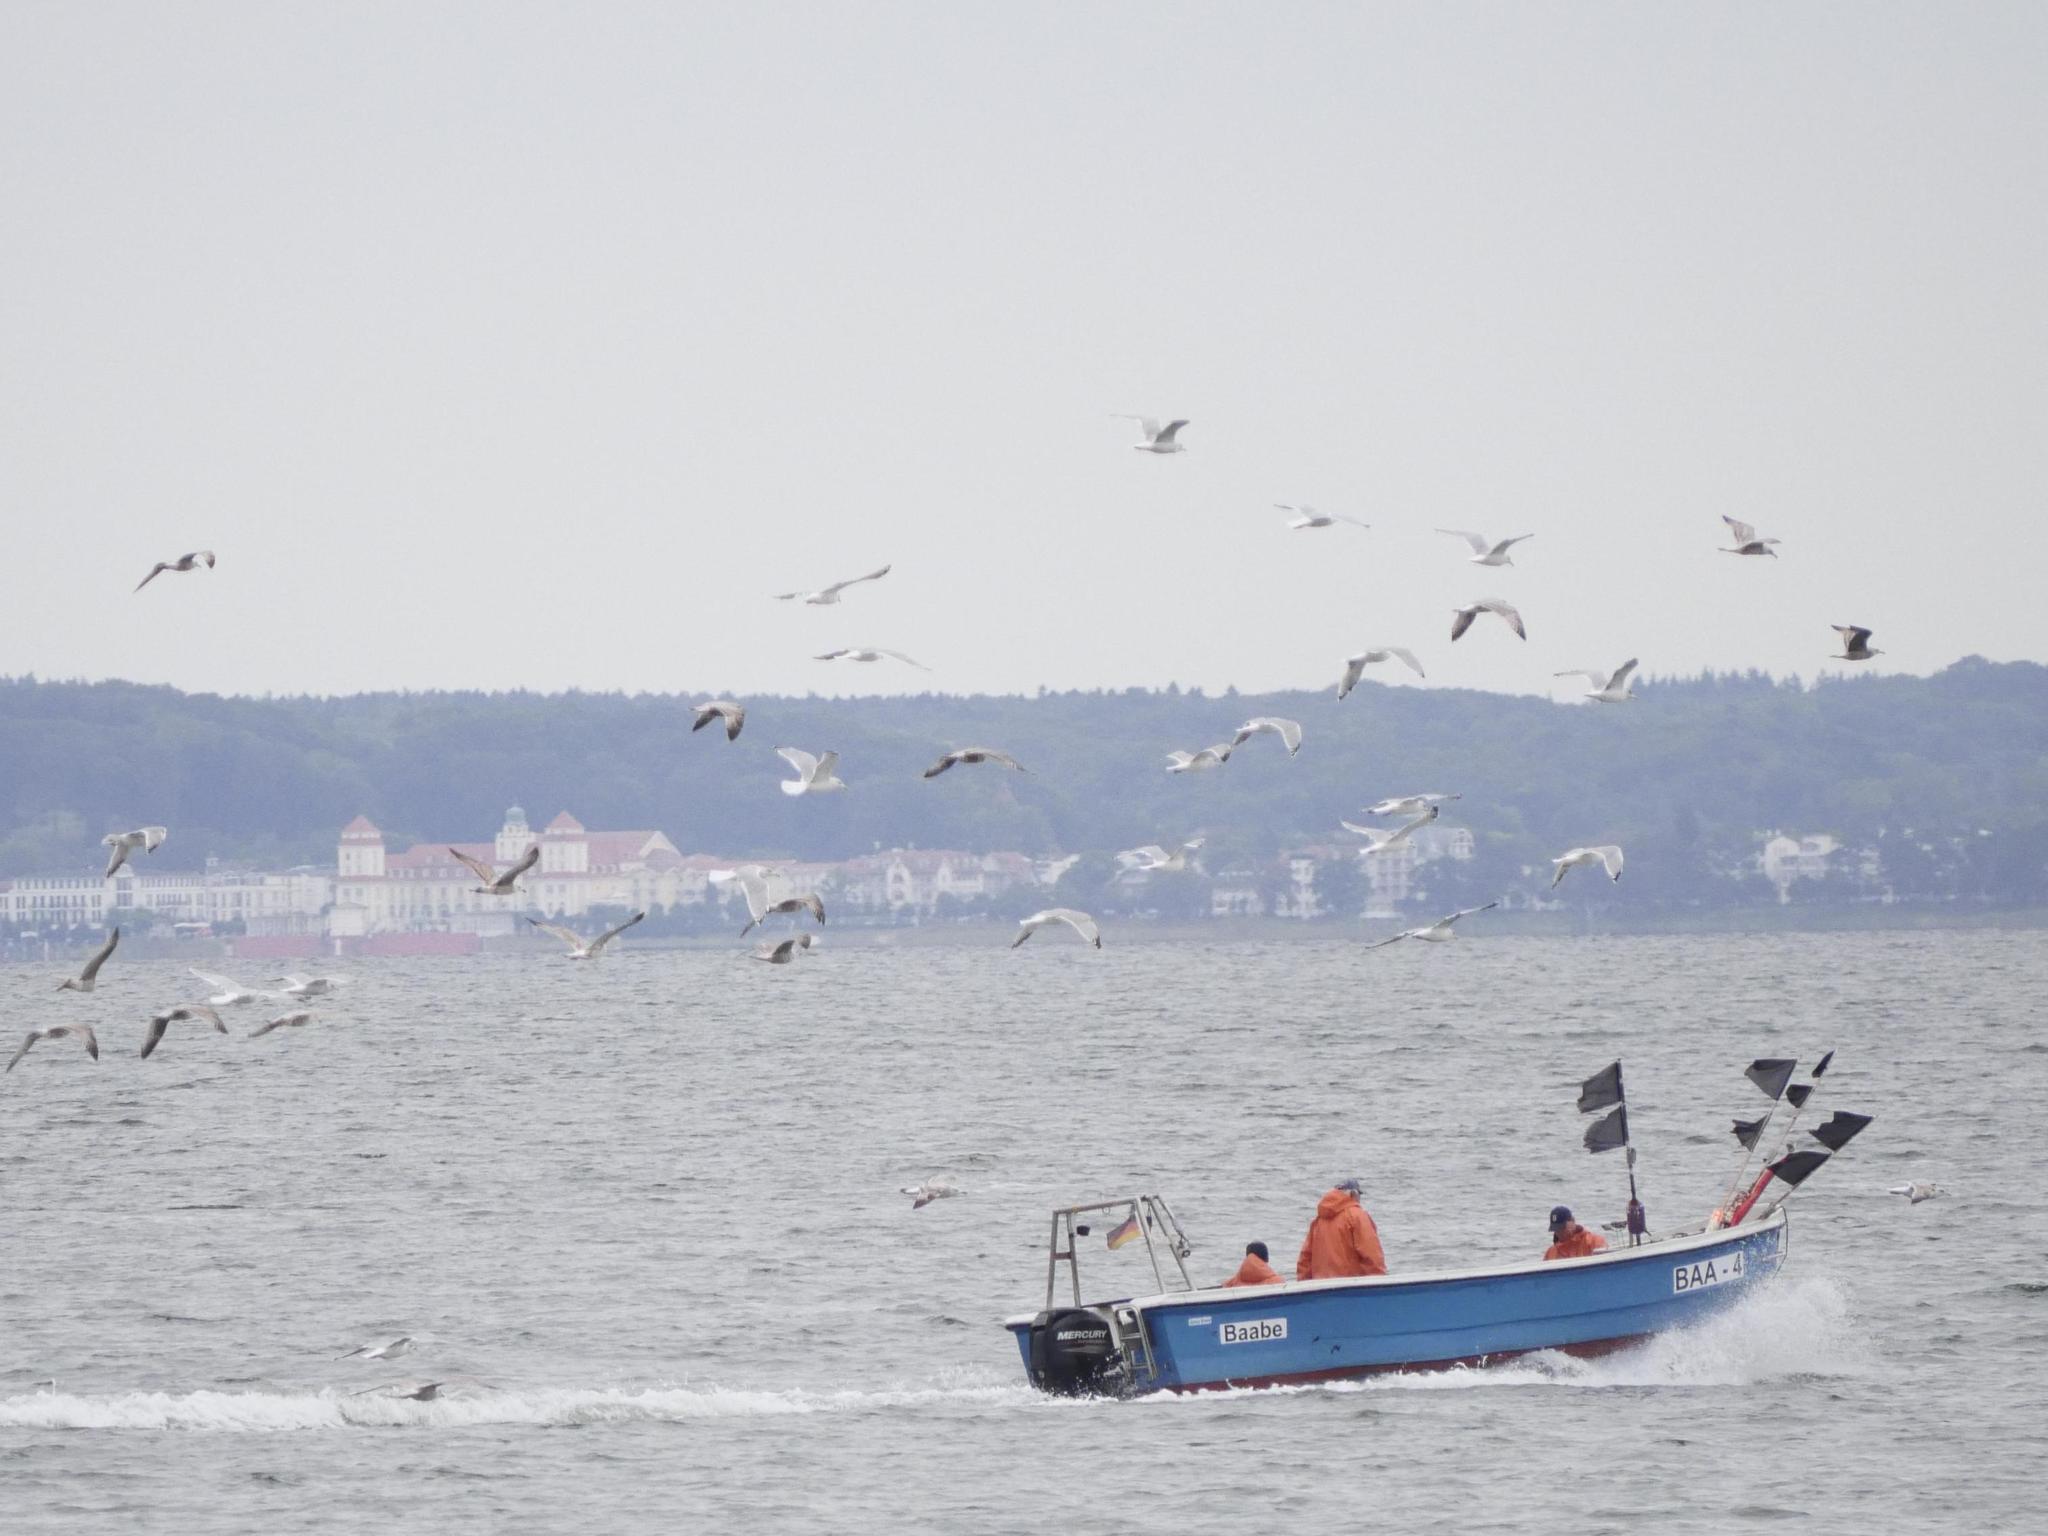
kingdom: Animalia
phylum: Chordata
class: Aves
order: Charadriiformes
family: Laridae
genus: Larus
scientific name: Larus argentatus
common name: Herring gull
